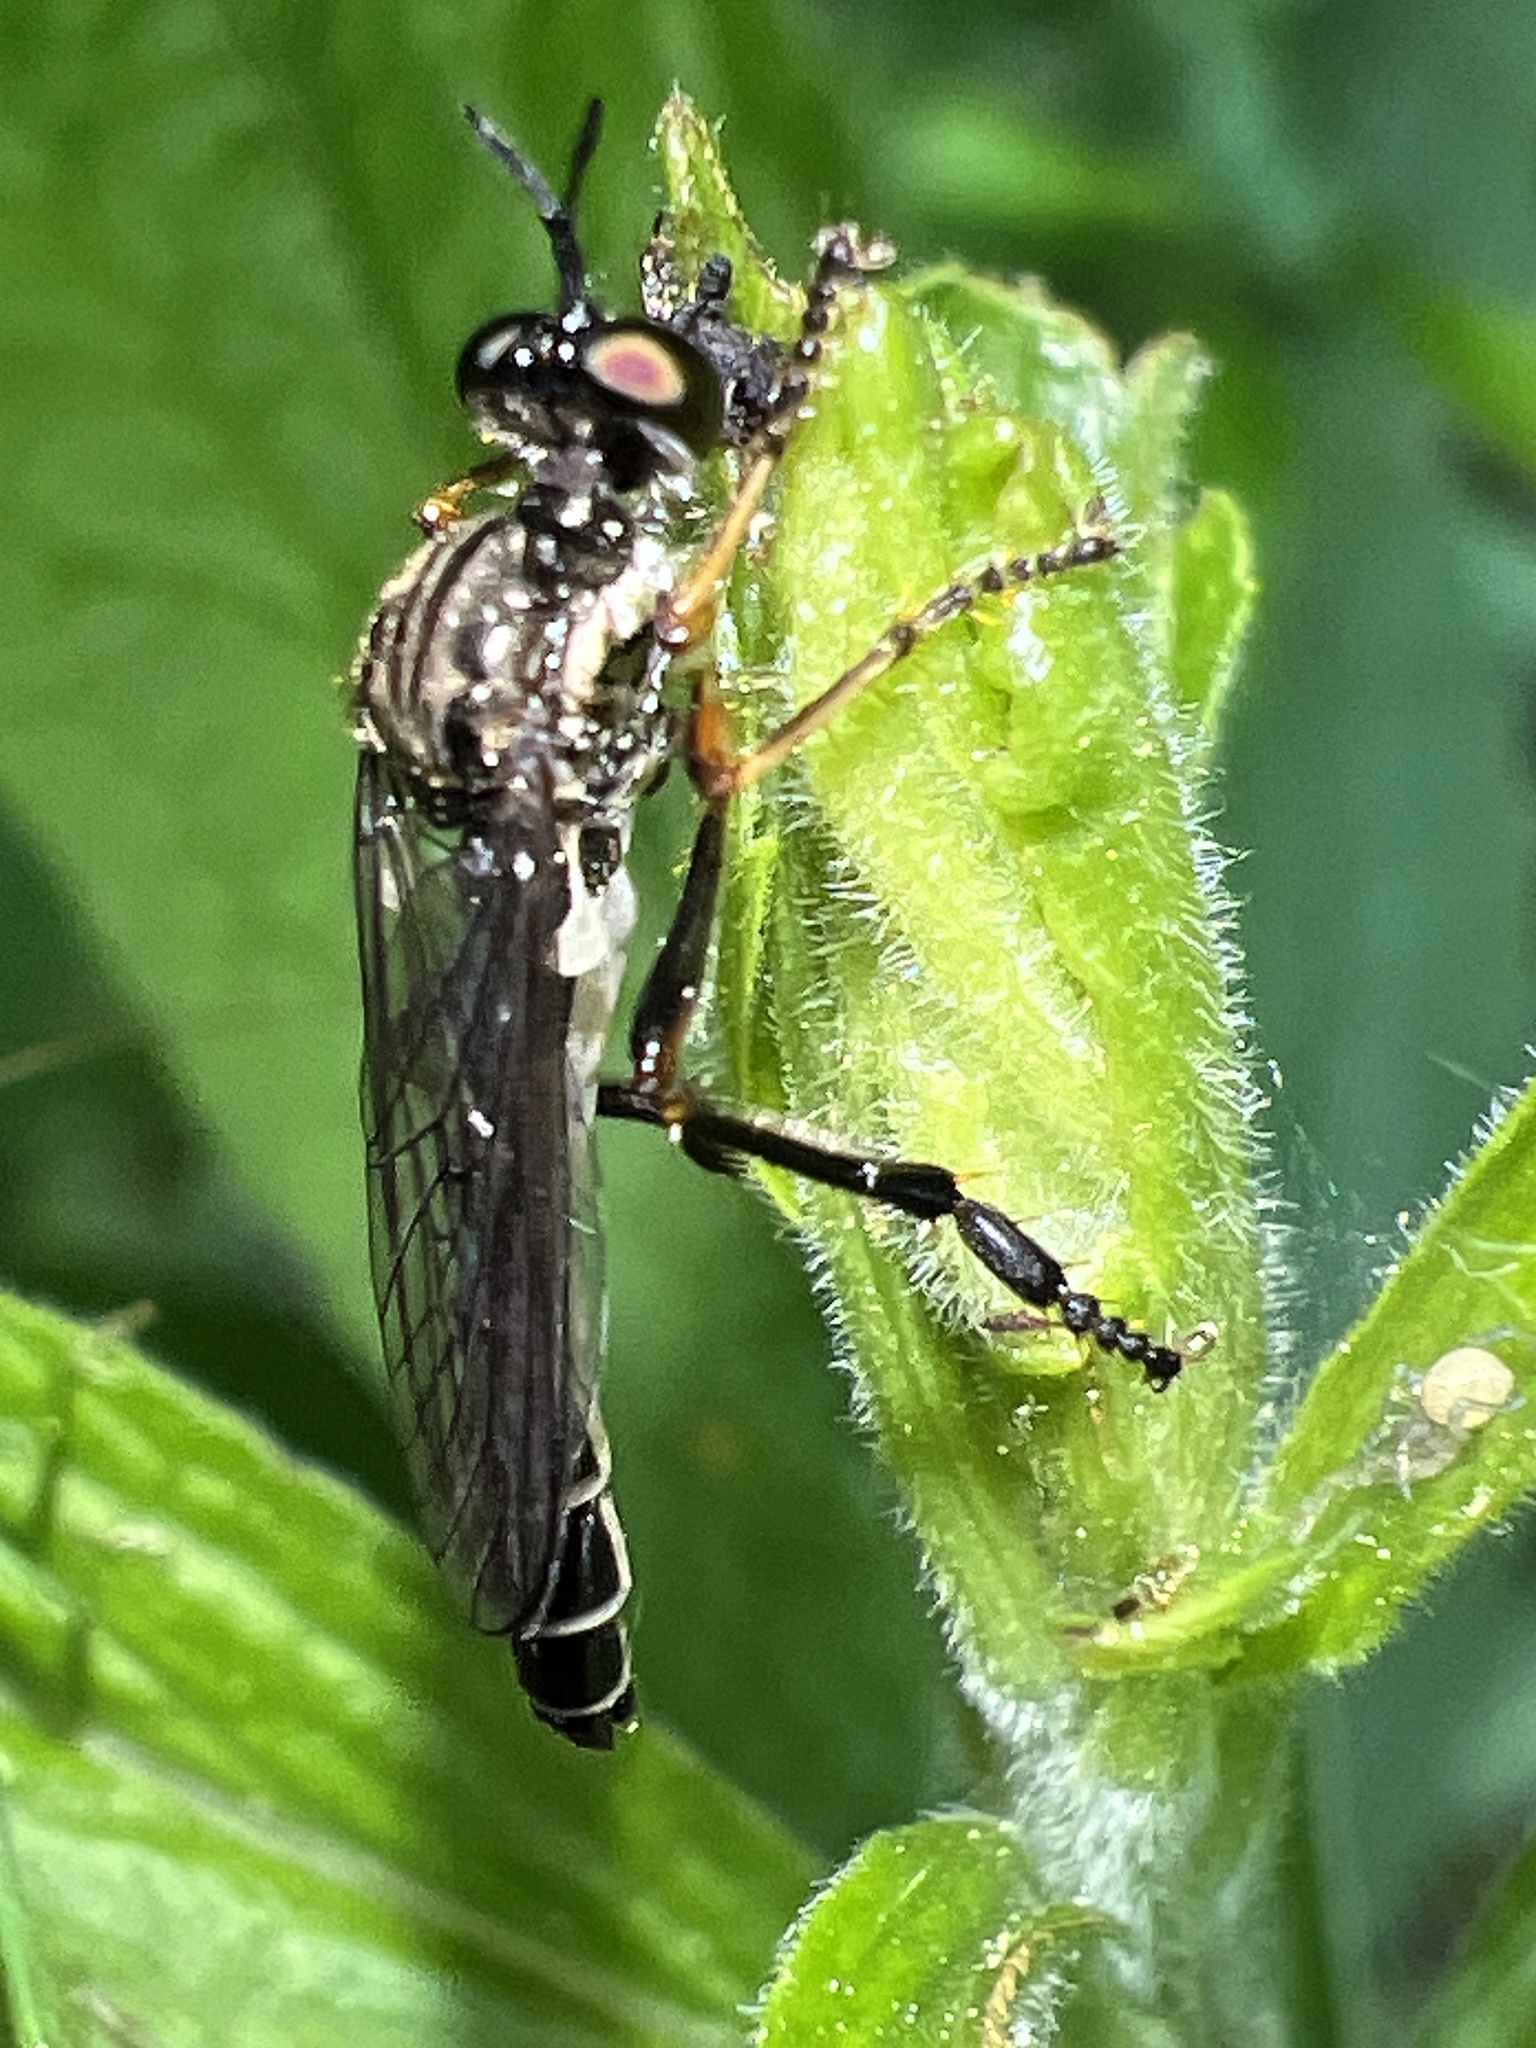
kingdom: Animalia
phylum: Arthropoda
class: Insecta
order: Diptera
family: Asilidae
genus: Dioctria
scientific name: Dioctria hyalipennis
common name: Stripe-legged robberfly
